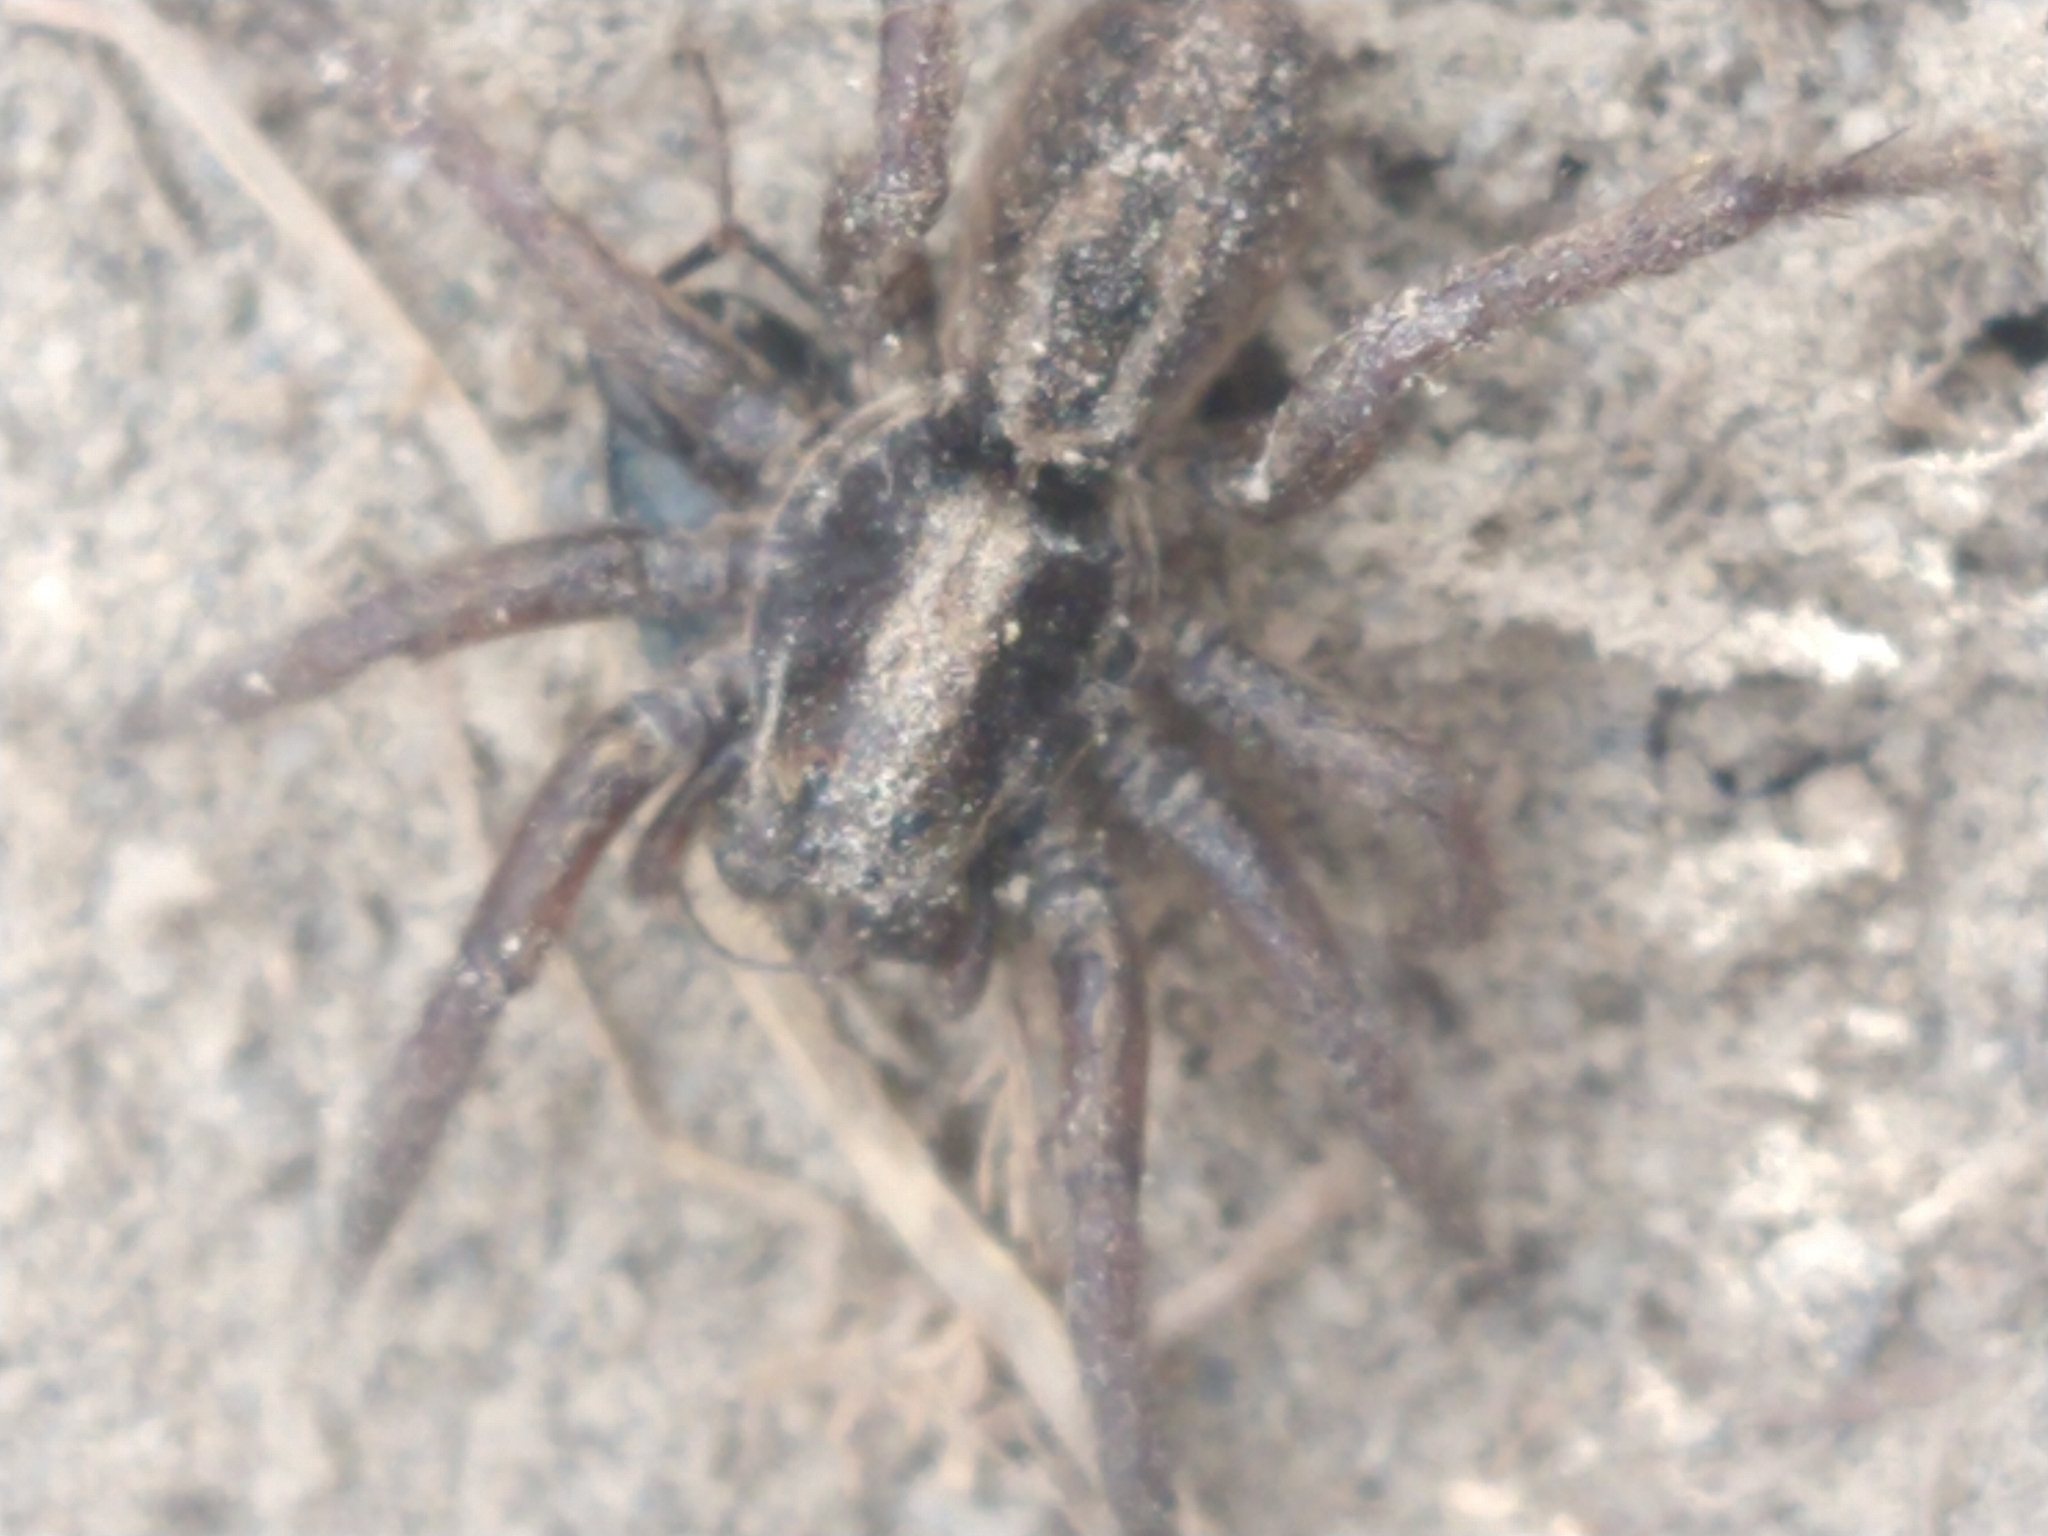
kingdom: Animalia
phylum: Arthropoda
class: Arachnida
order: Araneae
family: Lycosidae
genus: Alopecosa
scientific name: Alopecosa nigricans
